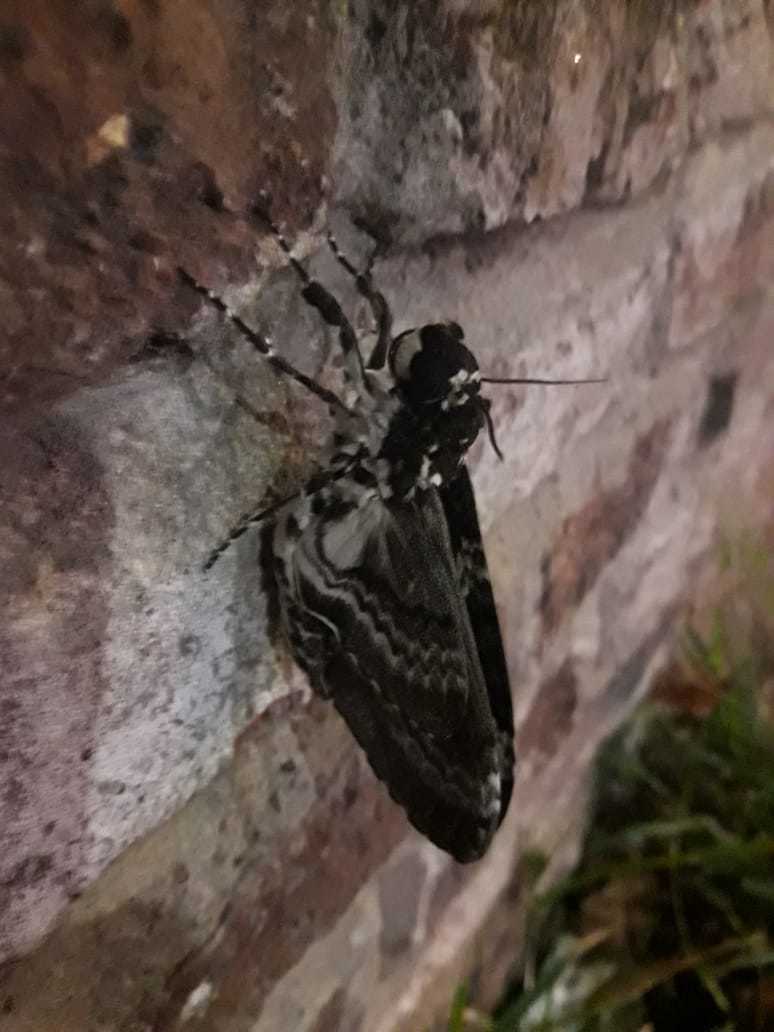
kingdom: Animalia
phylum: Arthropoda
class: Insecta
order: Lepidoptera
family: Sphingidae
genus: Manduca
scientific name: Manduca rustica
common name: Rustic sphinx
